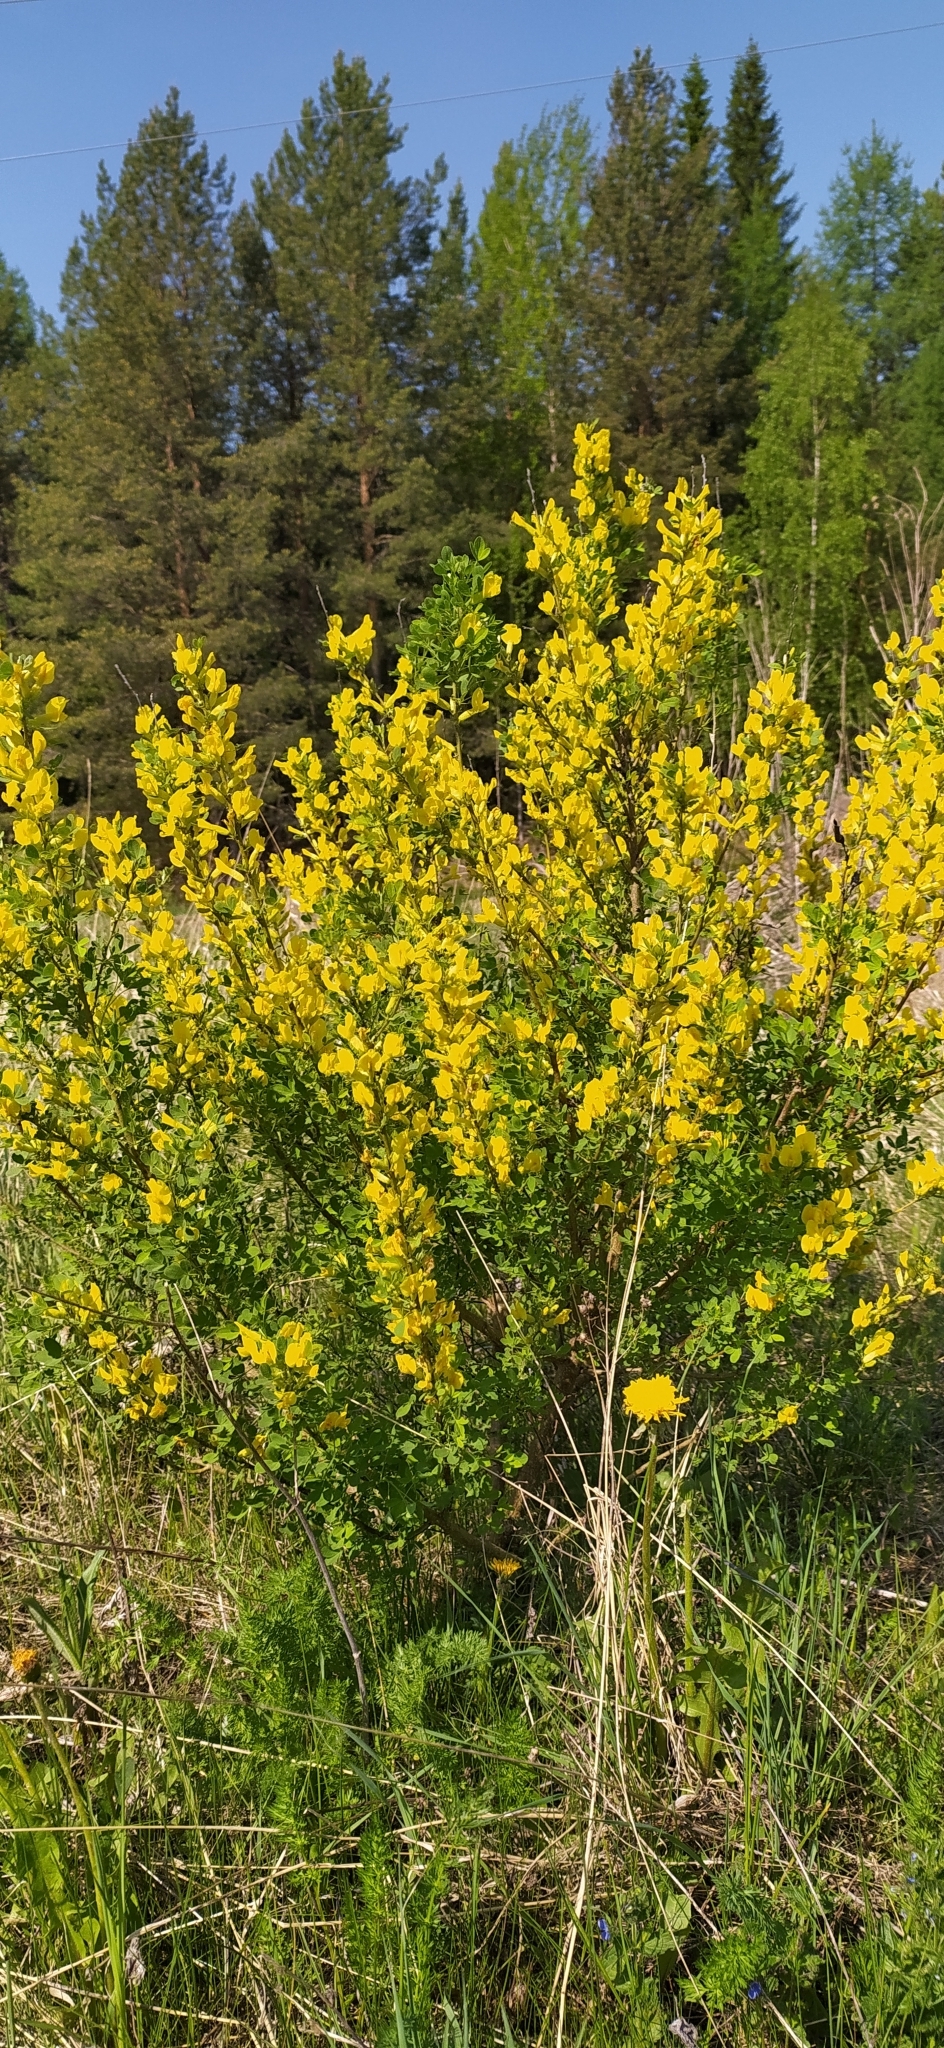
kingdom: Plantae
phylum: Tracheophyta
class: Magnoliopsida
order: Fabales
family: Fabaceae
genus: Chamaecytisus
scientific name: Chamaecytisus ruthenicus
